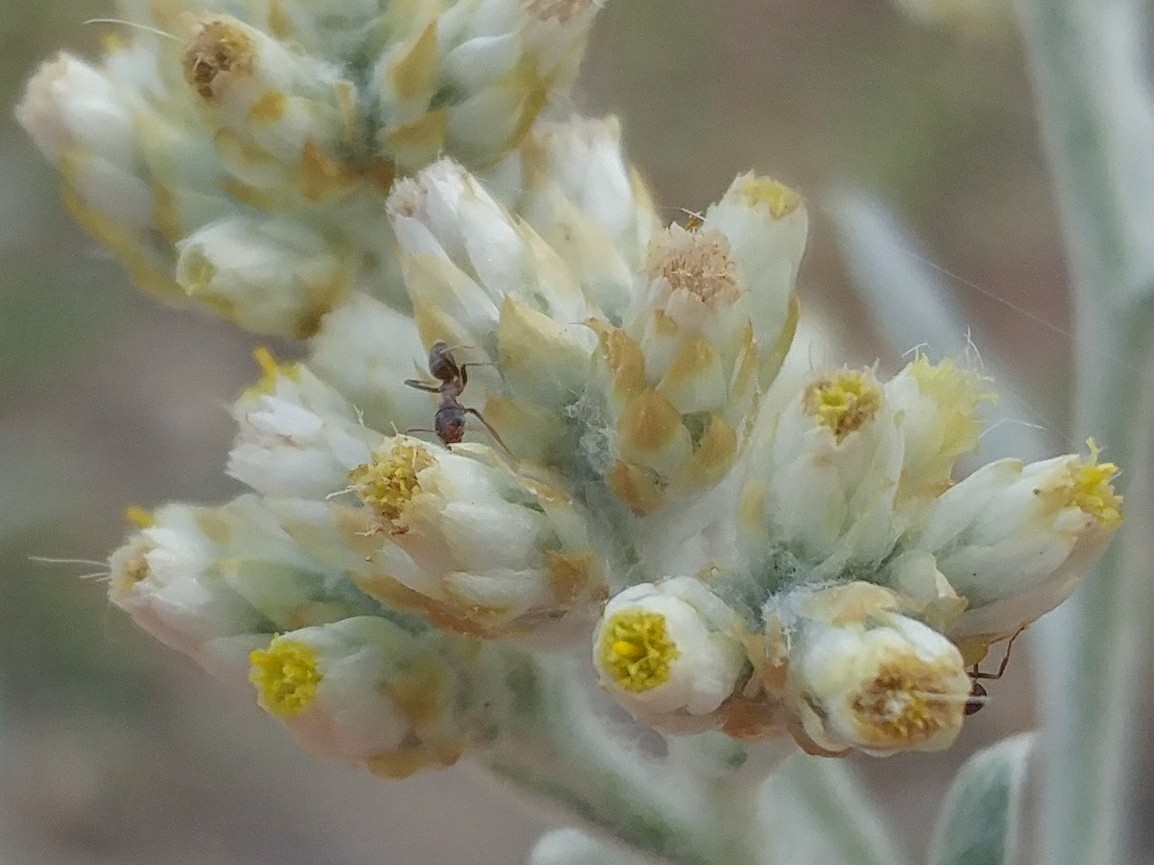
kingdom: Animalia
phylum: Arthropoda
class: Insecta
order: Hymenoptera
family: Formicidae
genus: Linepithema
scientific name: Linepithema humile
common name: Argentine ant
